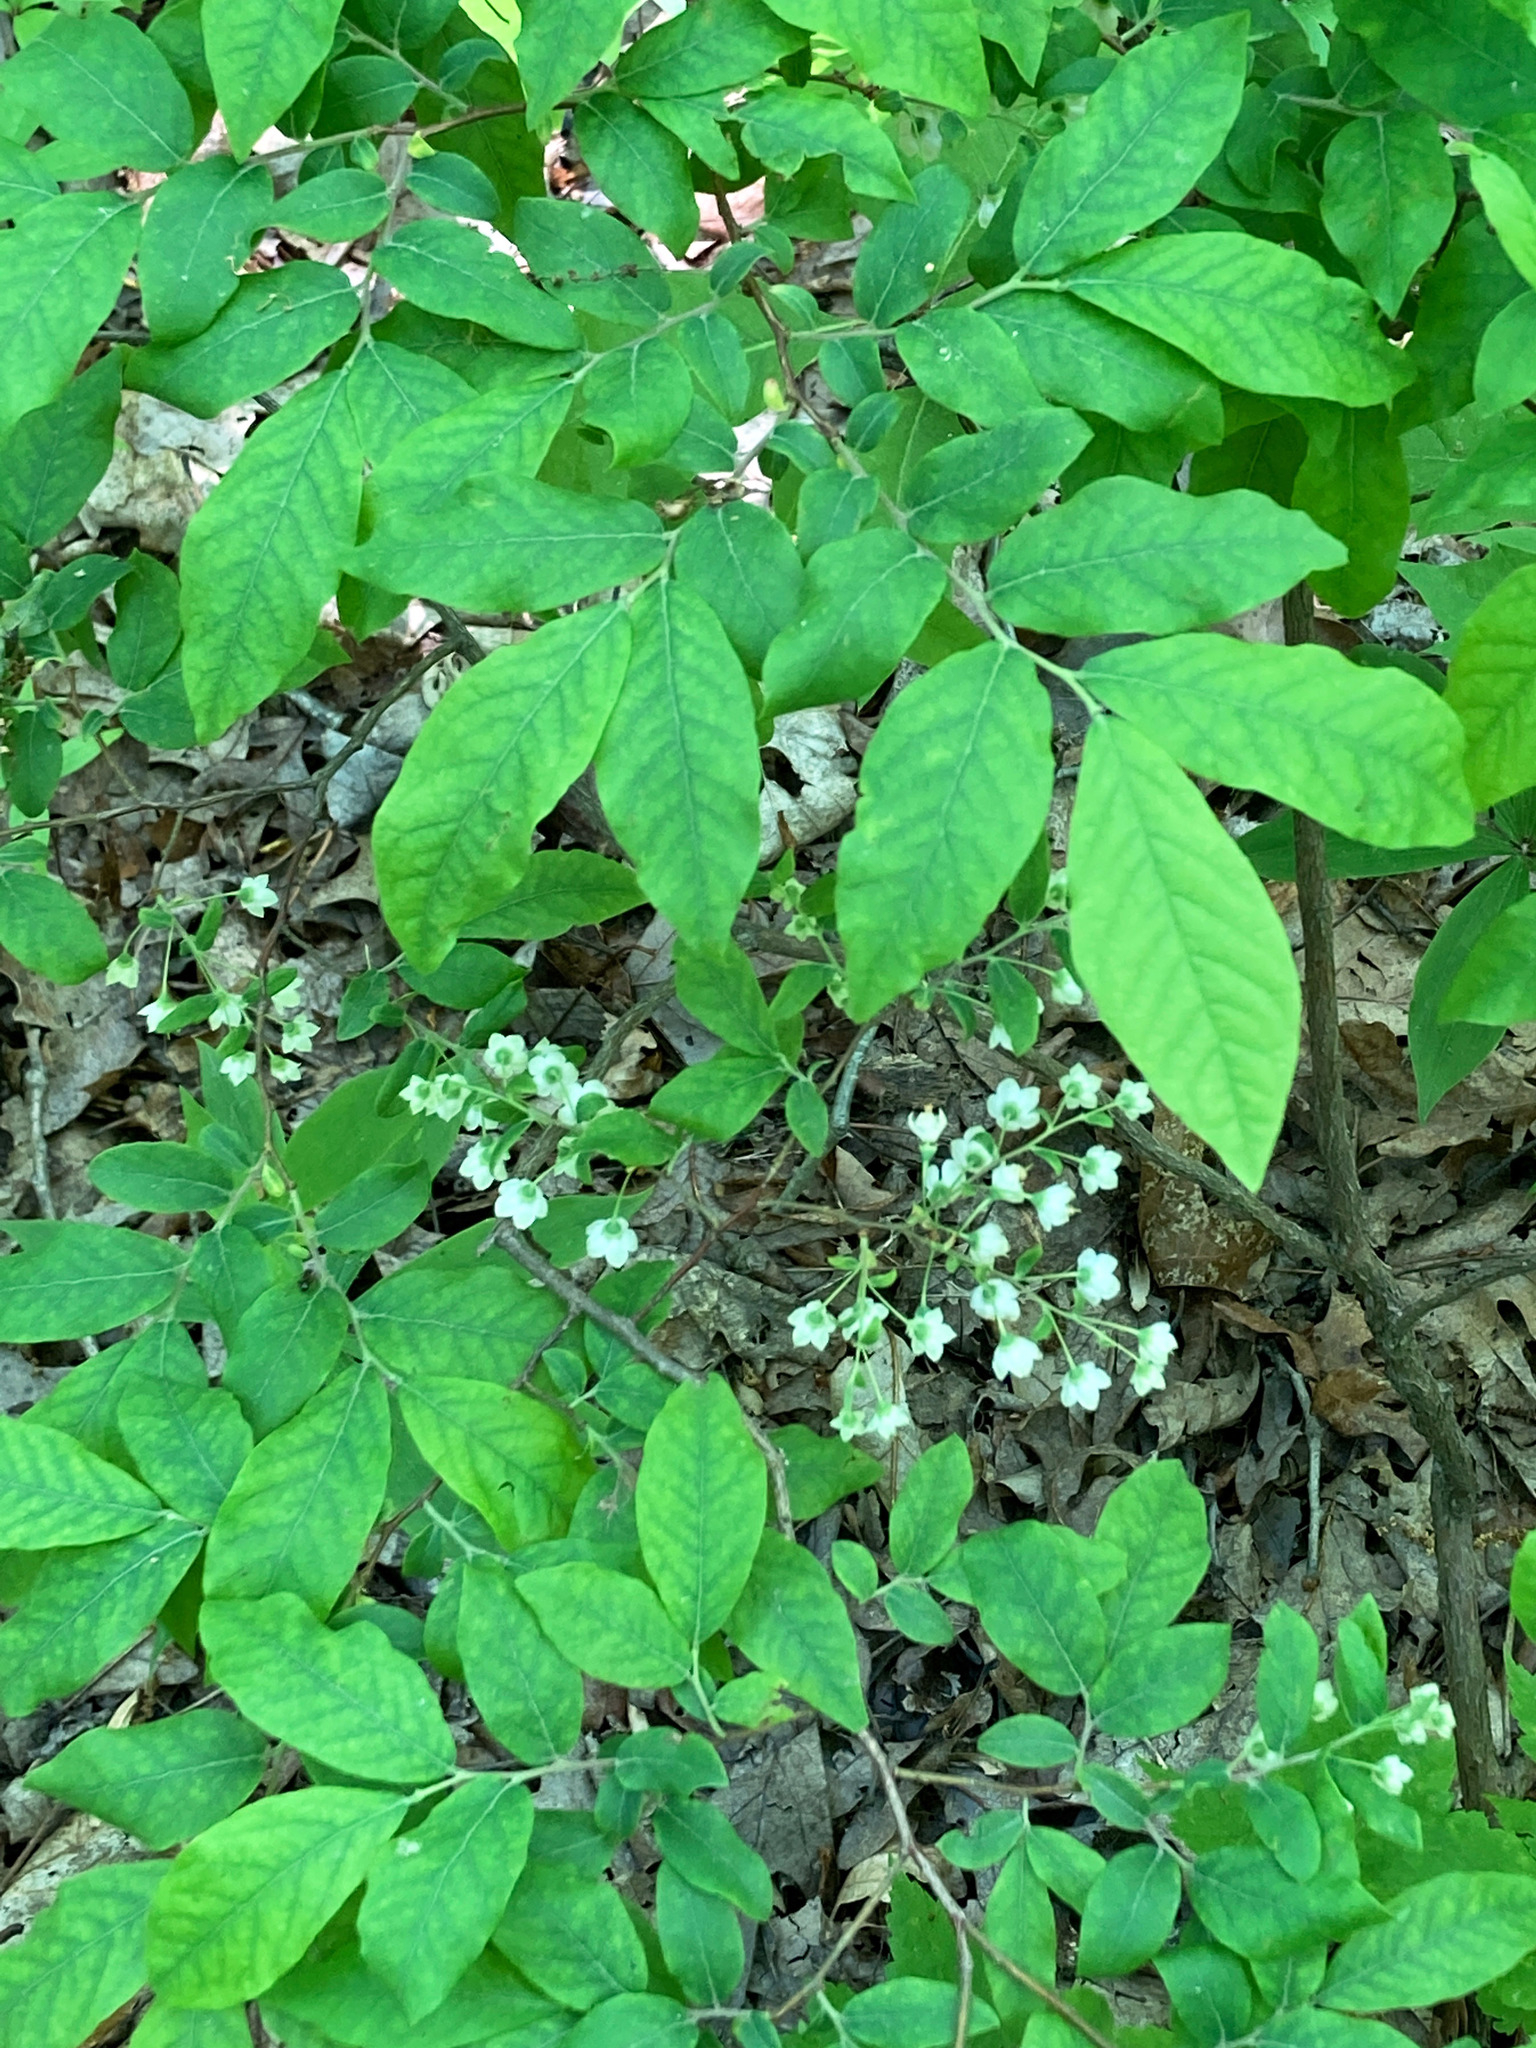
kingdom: Plantae
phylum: Tracheophyta
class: Magnoliopsida
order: Ericales
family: Ericaceae
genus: Vaccinium
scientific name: Vaccinium stamineum
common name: Deerberry
